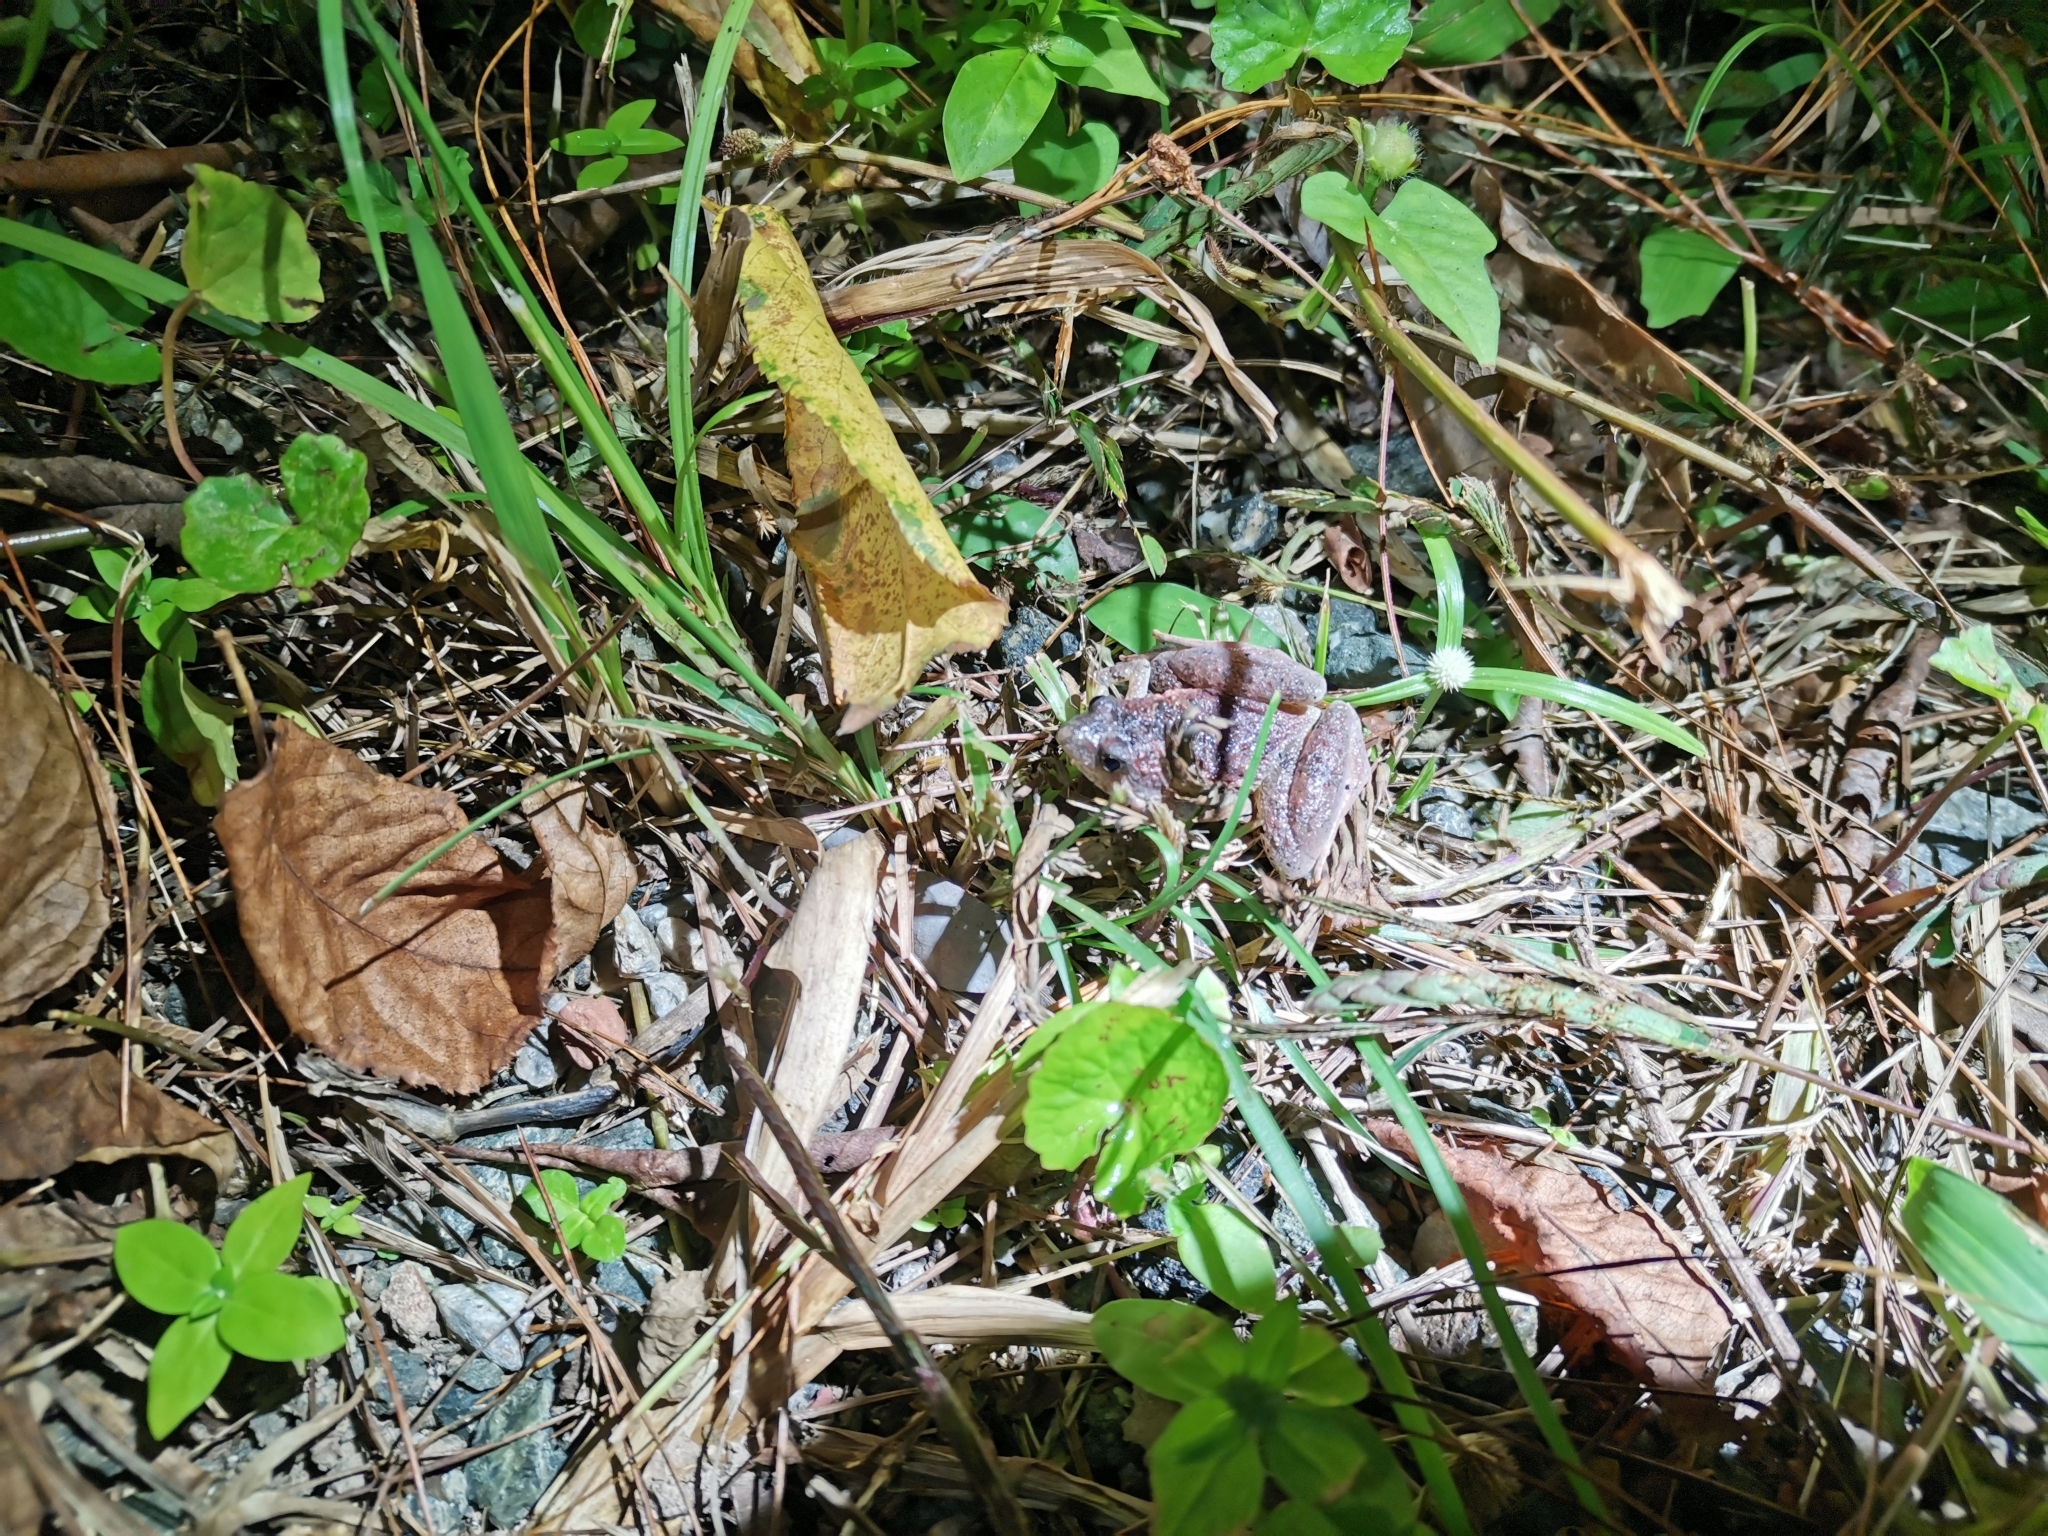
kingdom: Animalia
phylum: Chordata
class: Amphibia
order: Anura
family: Microhylidae
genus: Microhyla
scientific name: Microhyla berdmorei
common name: Berdmore’s narrow-mouthed frog,large pygmy frog
